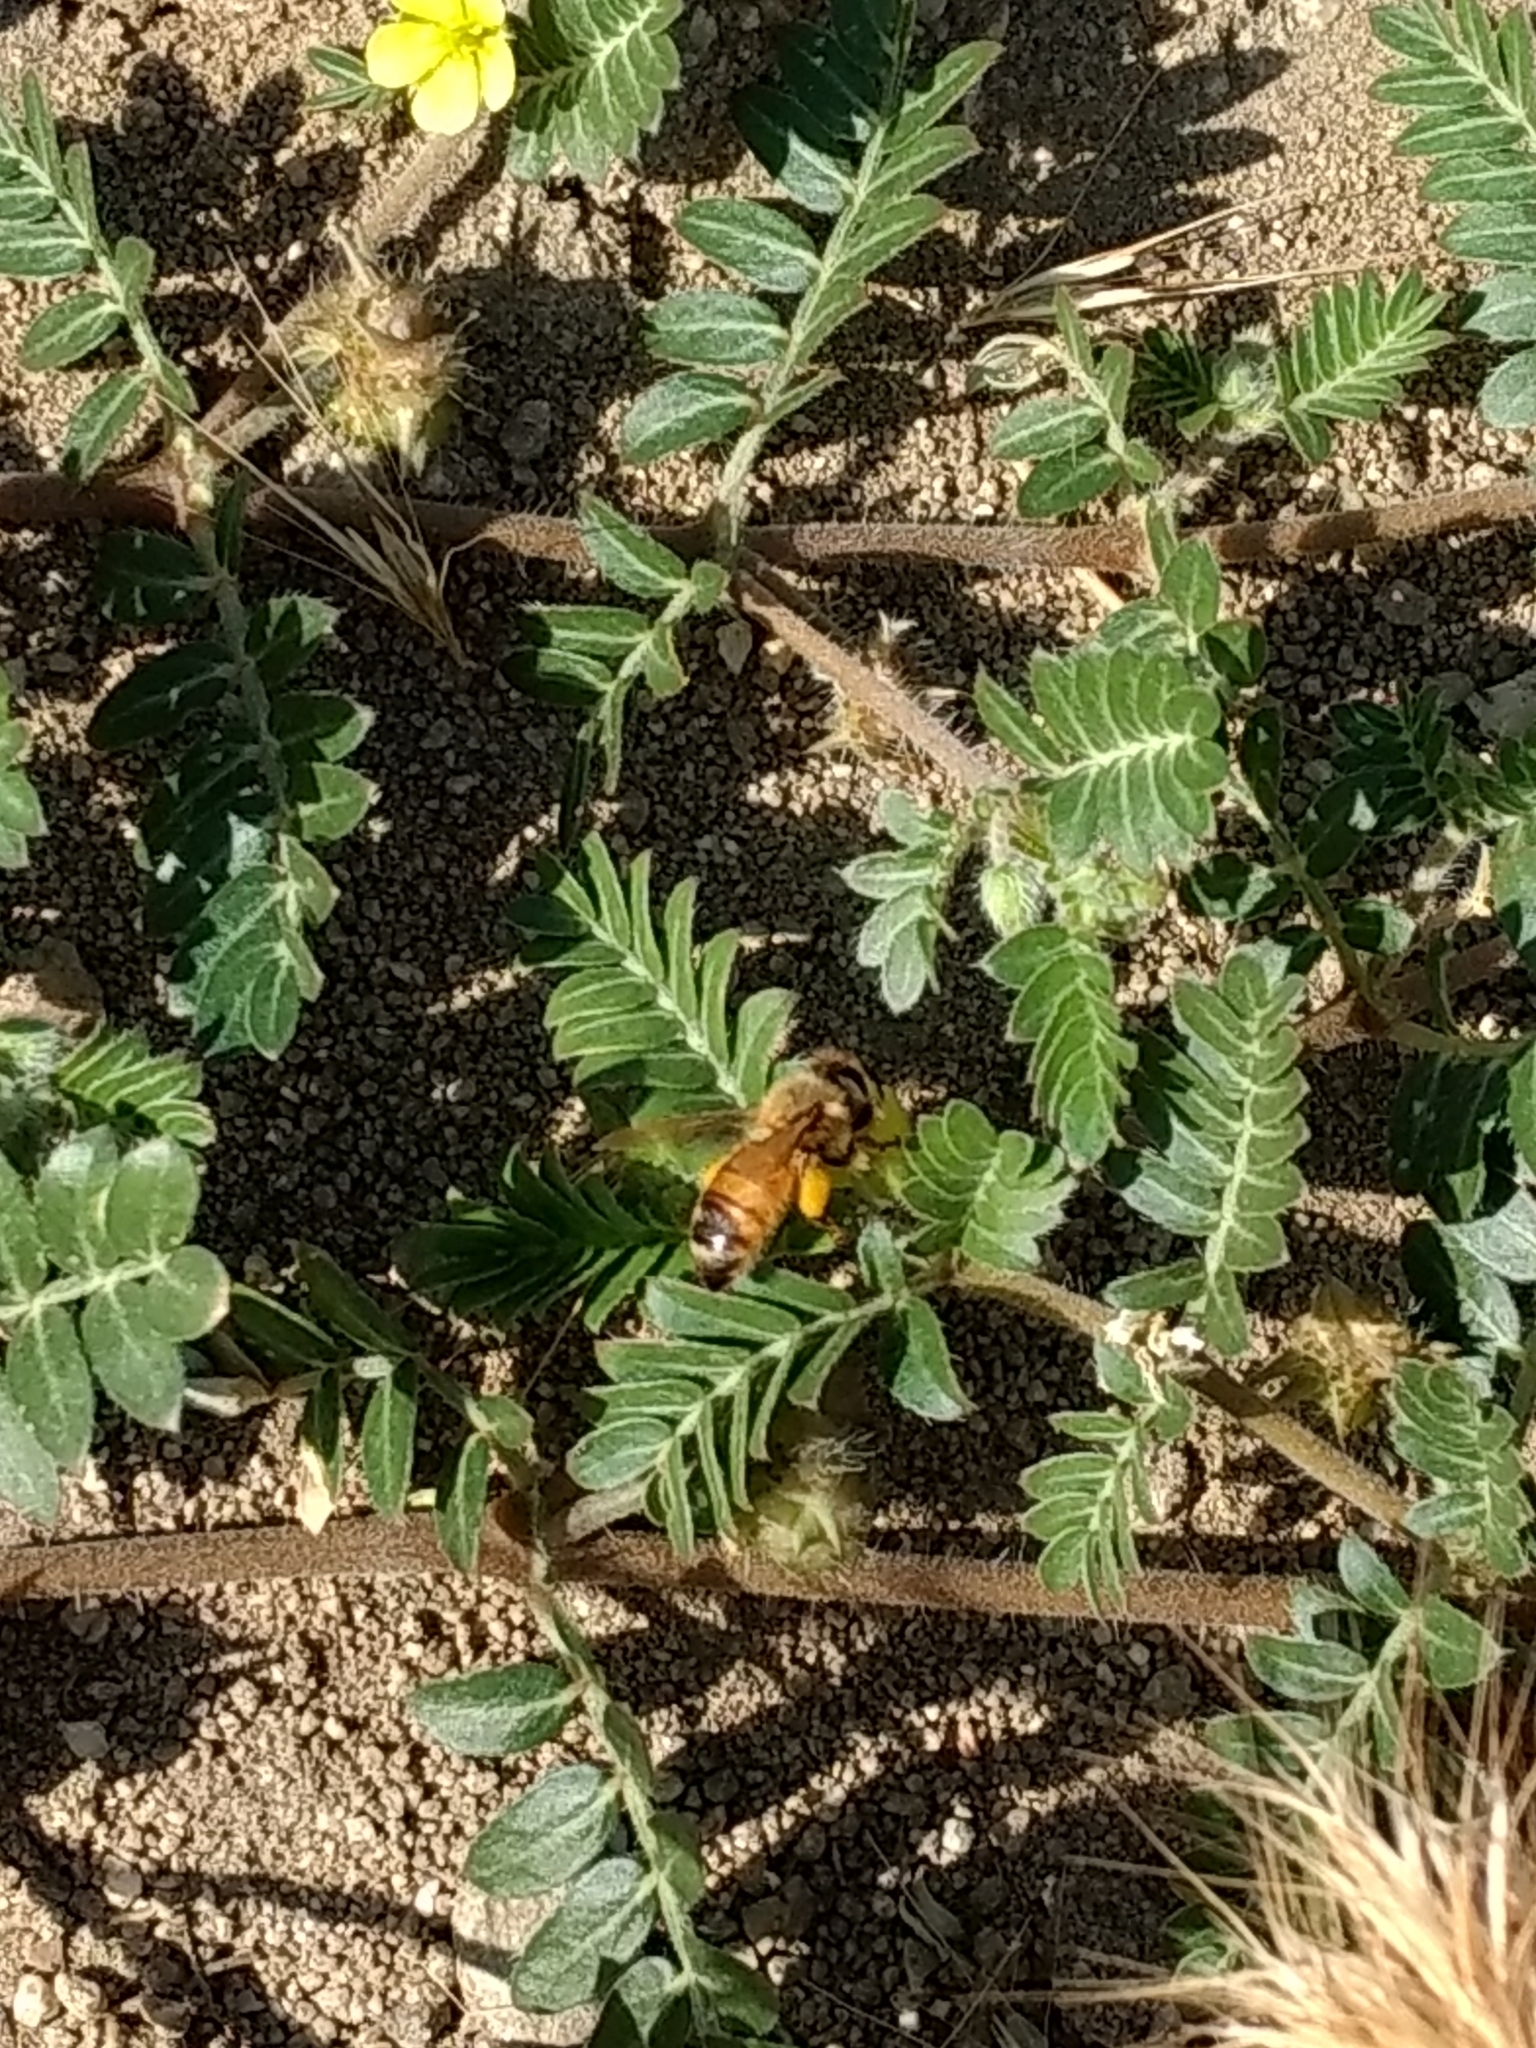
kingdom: Animalia
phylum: Arthropoda
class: Insecta
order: Hymenoptera
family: Apidae
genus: Apis
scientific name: Apis mellifera
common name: Honey bee
